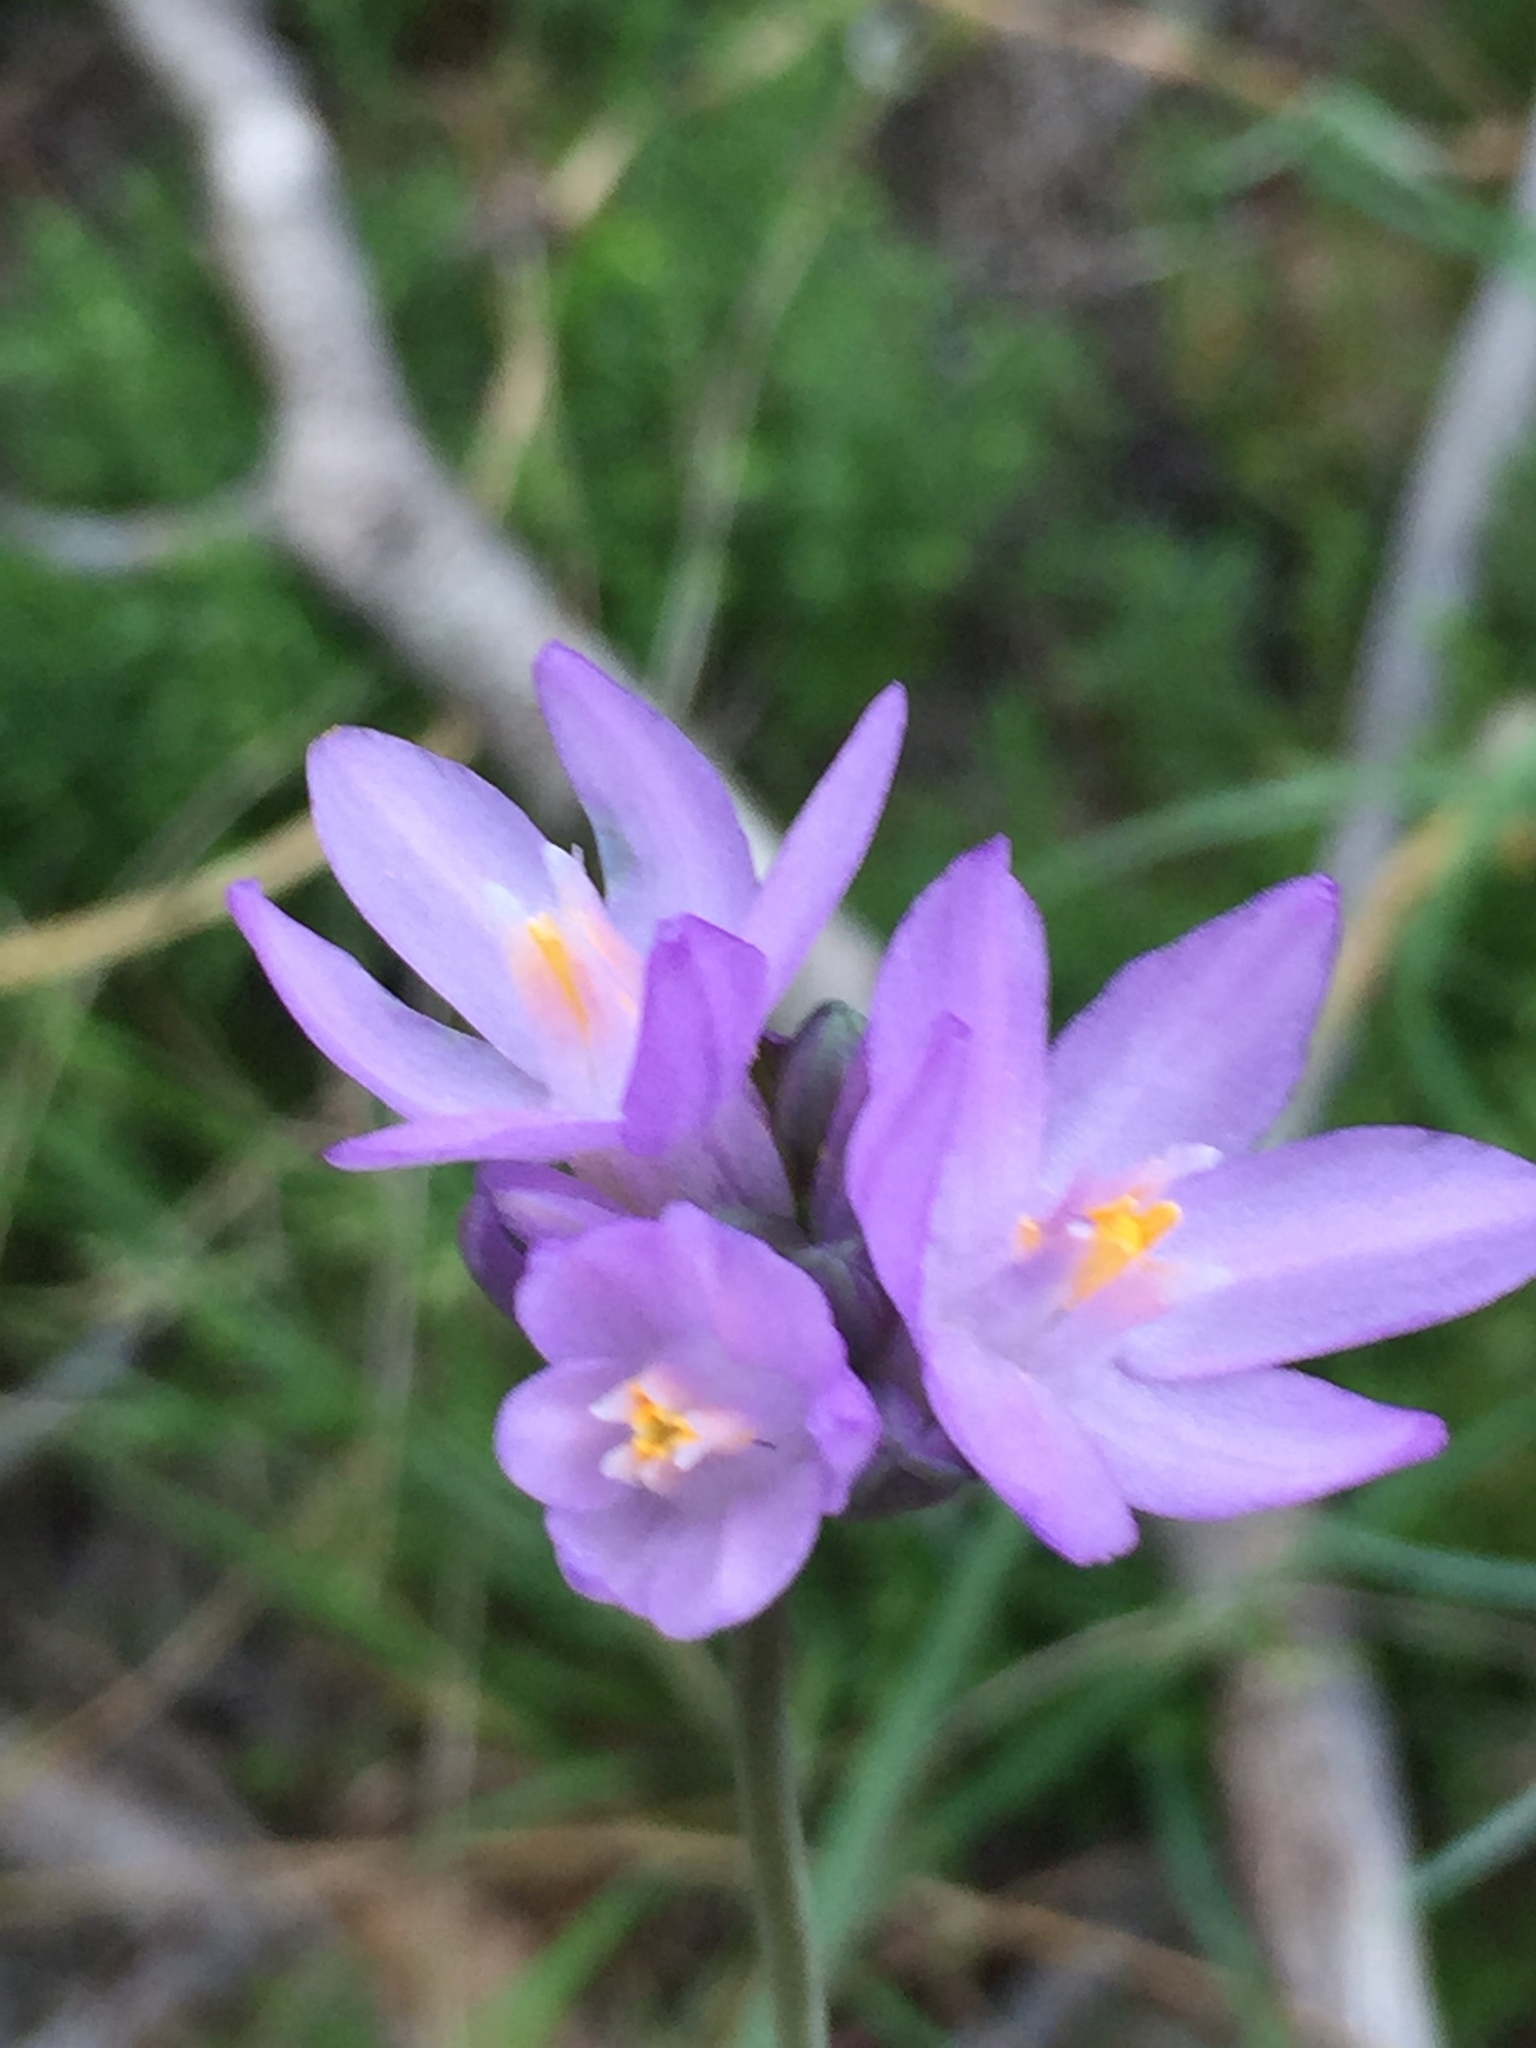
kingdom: Plantae
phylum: Tracheophyta
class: Liliopsida
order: Asparagales
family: Asparagaceae
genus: Dipterostemon
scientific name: Dipterostemon capitatus
